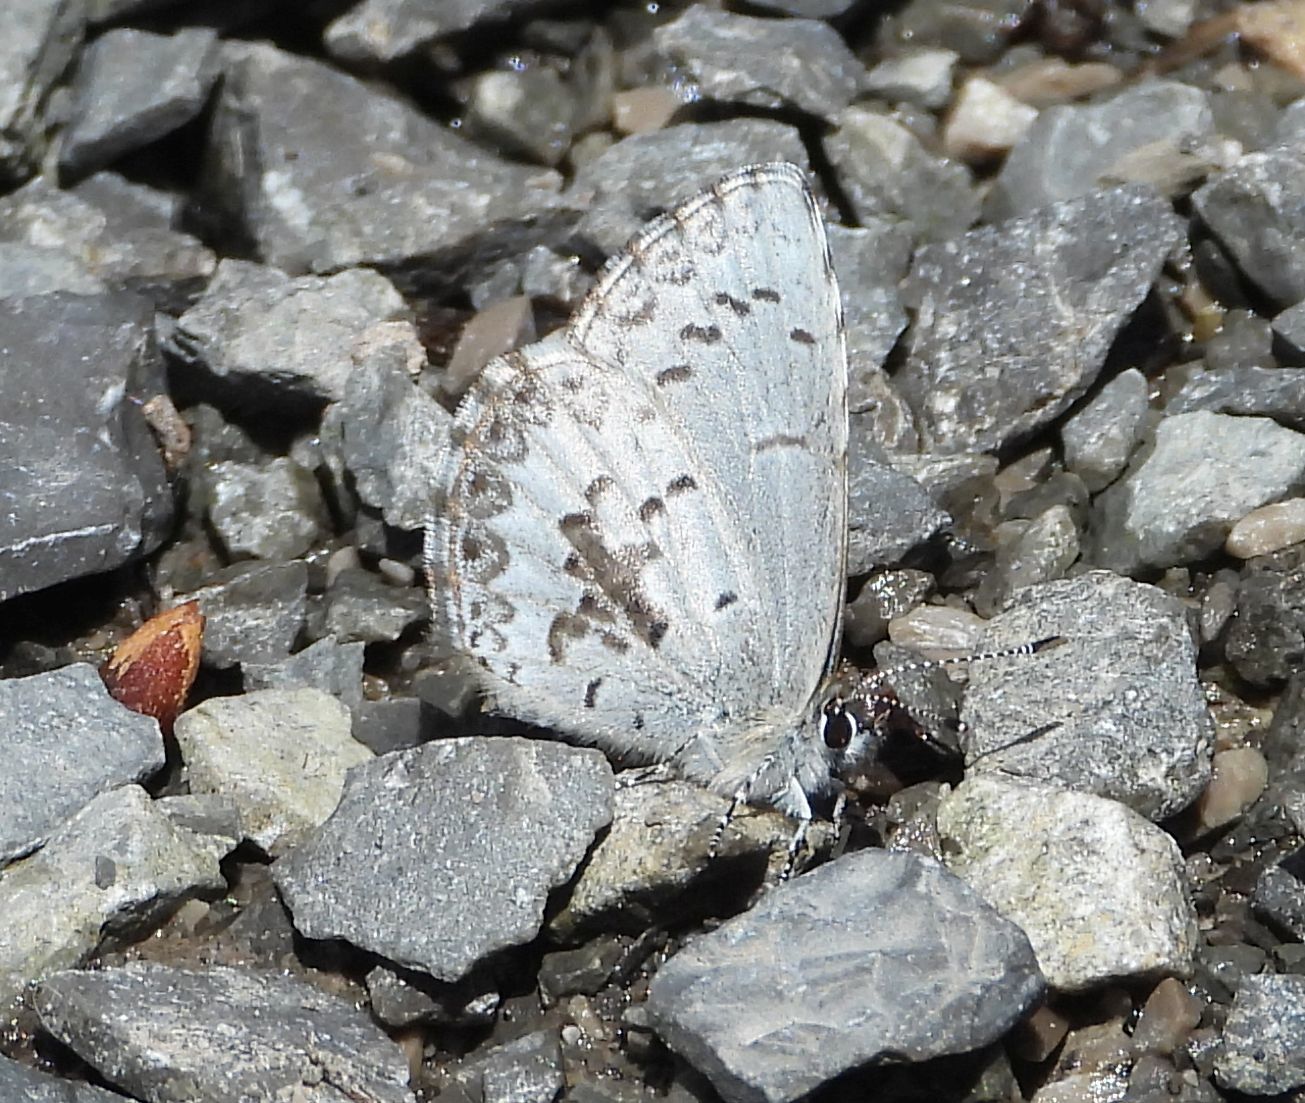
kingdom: Animalia
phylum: Arthropoda
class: Insecta
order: Lepidoptera
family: Lycaenidae
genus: Celastrina
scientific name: Celastrina lucia
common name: Lucia azure
